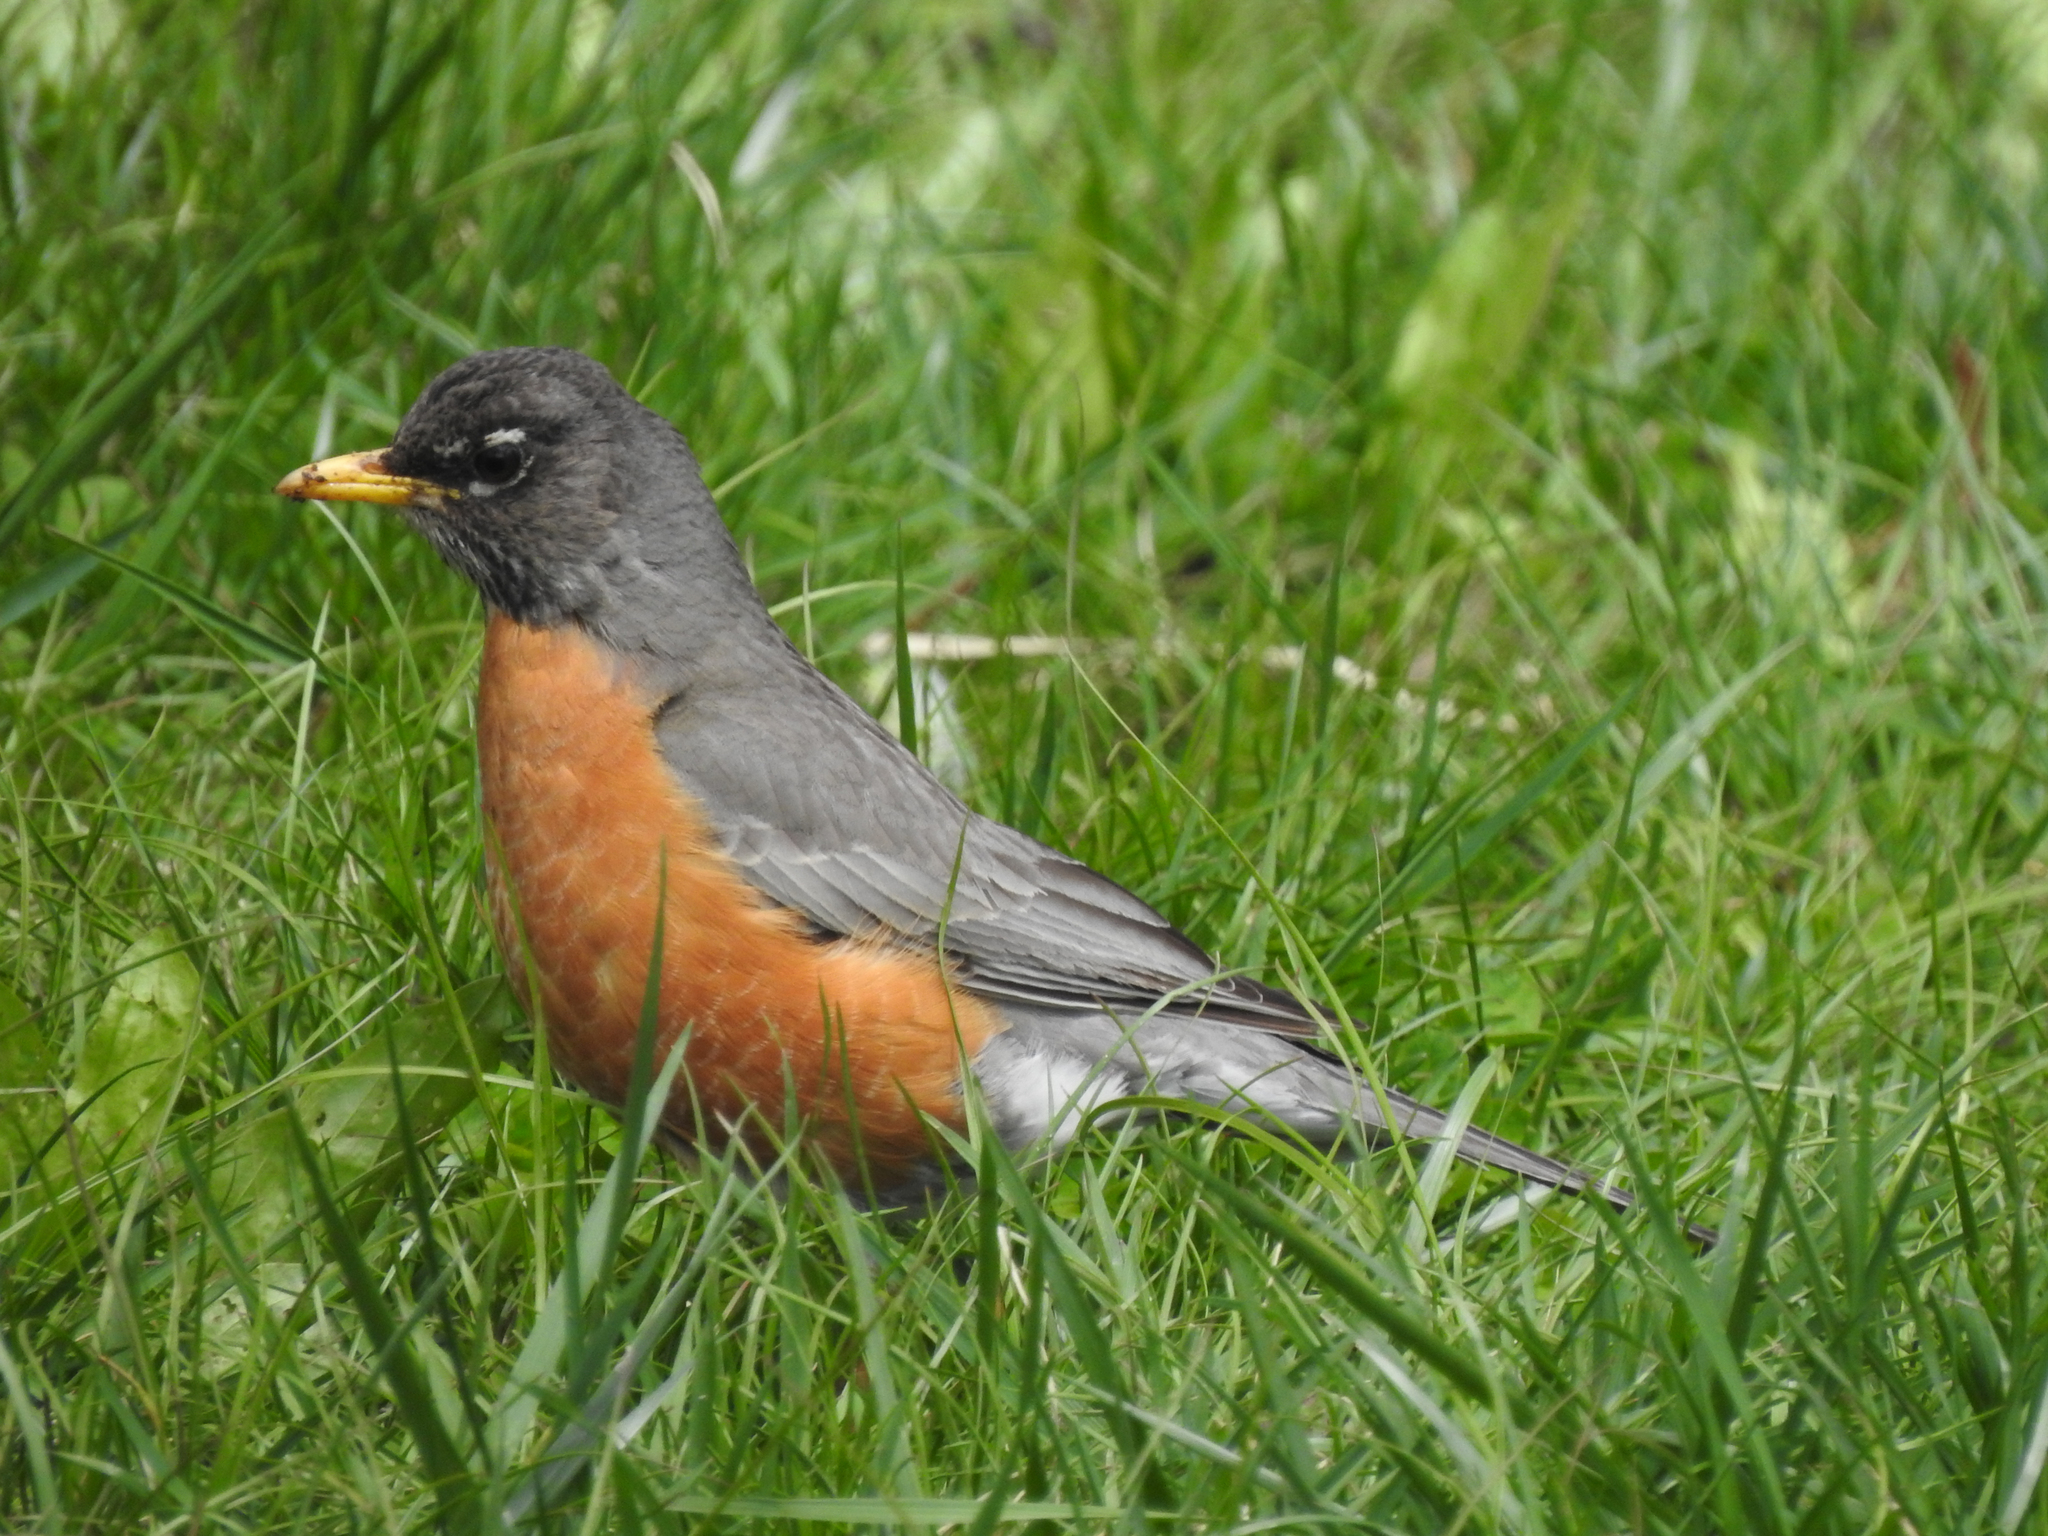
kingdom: Animalia
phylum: Chordata
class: Aves
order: Passeriformes
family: Turdidae
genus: Turdus
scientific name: Turdus migratorius
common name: American robin
